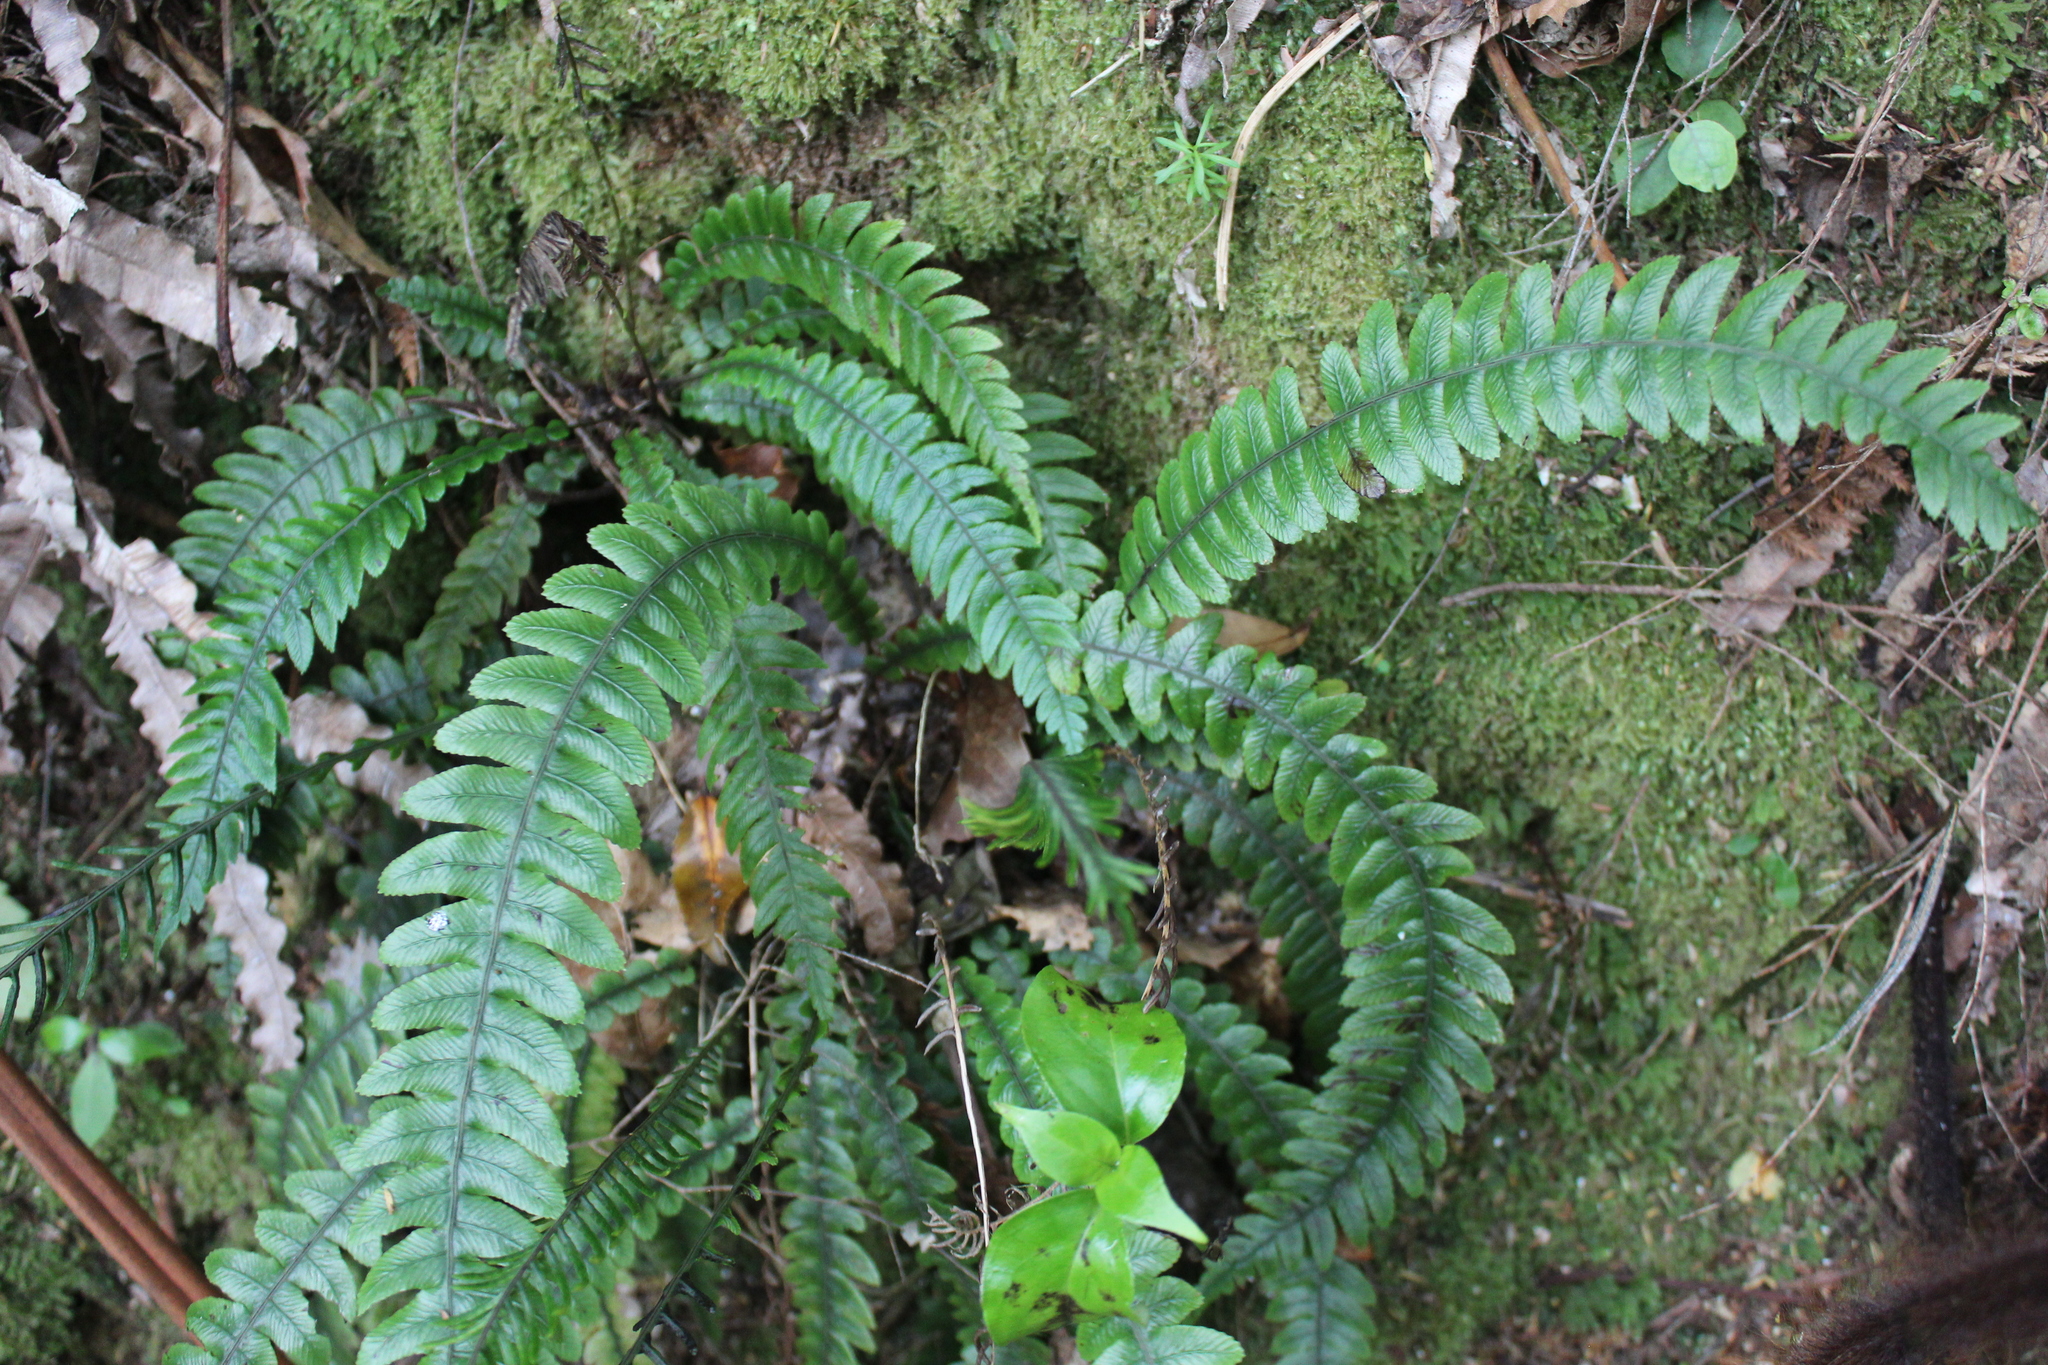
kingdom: Plantae
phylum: Tracheophyta
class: Polypodiopsida
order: Polypodiales
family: Blechnaceae
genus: Austroblechnum
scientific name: Austroblechnum lanceolatum
